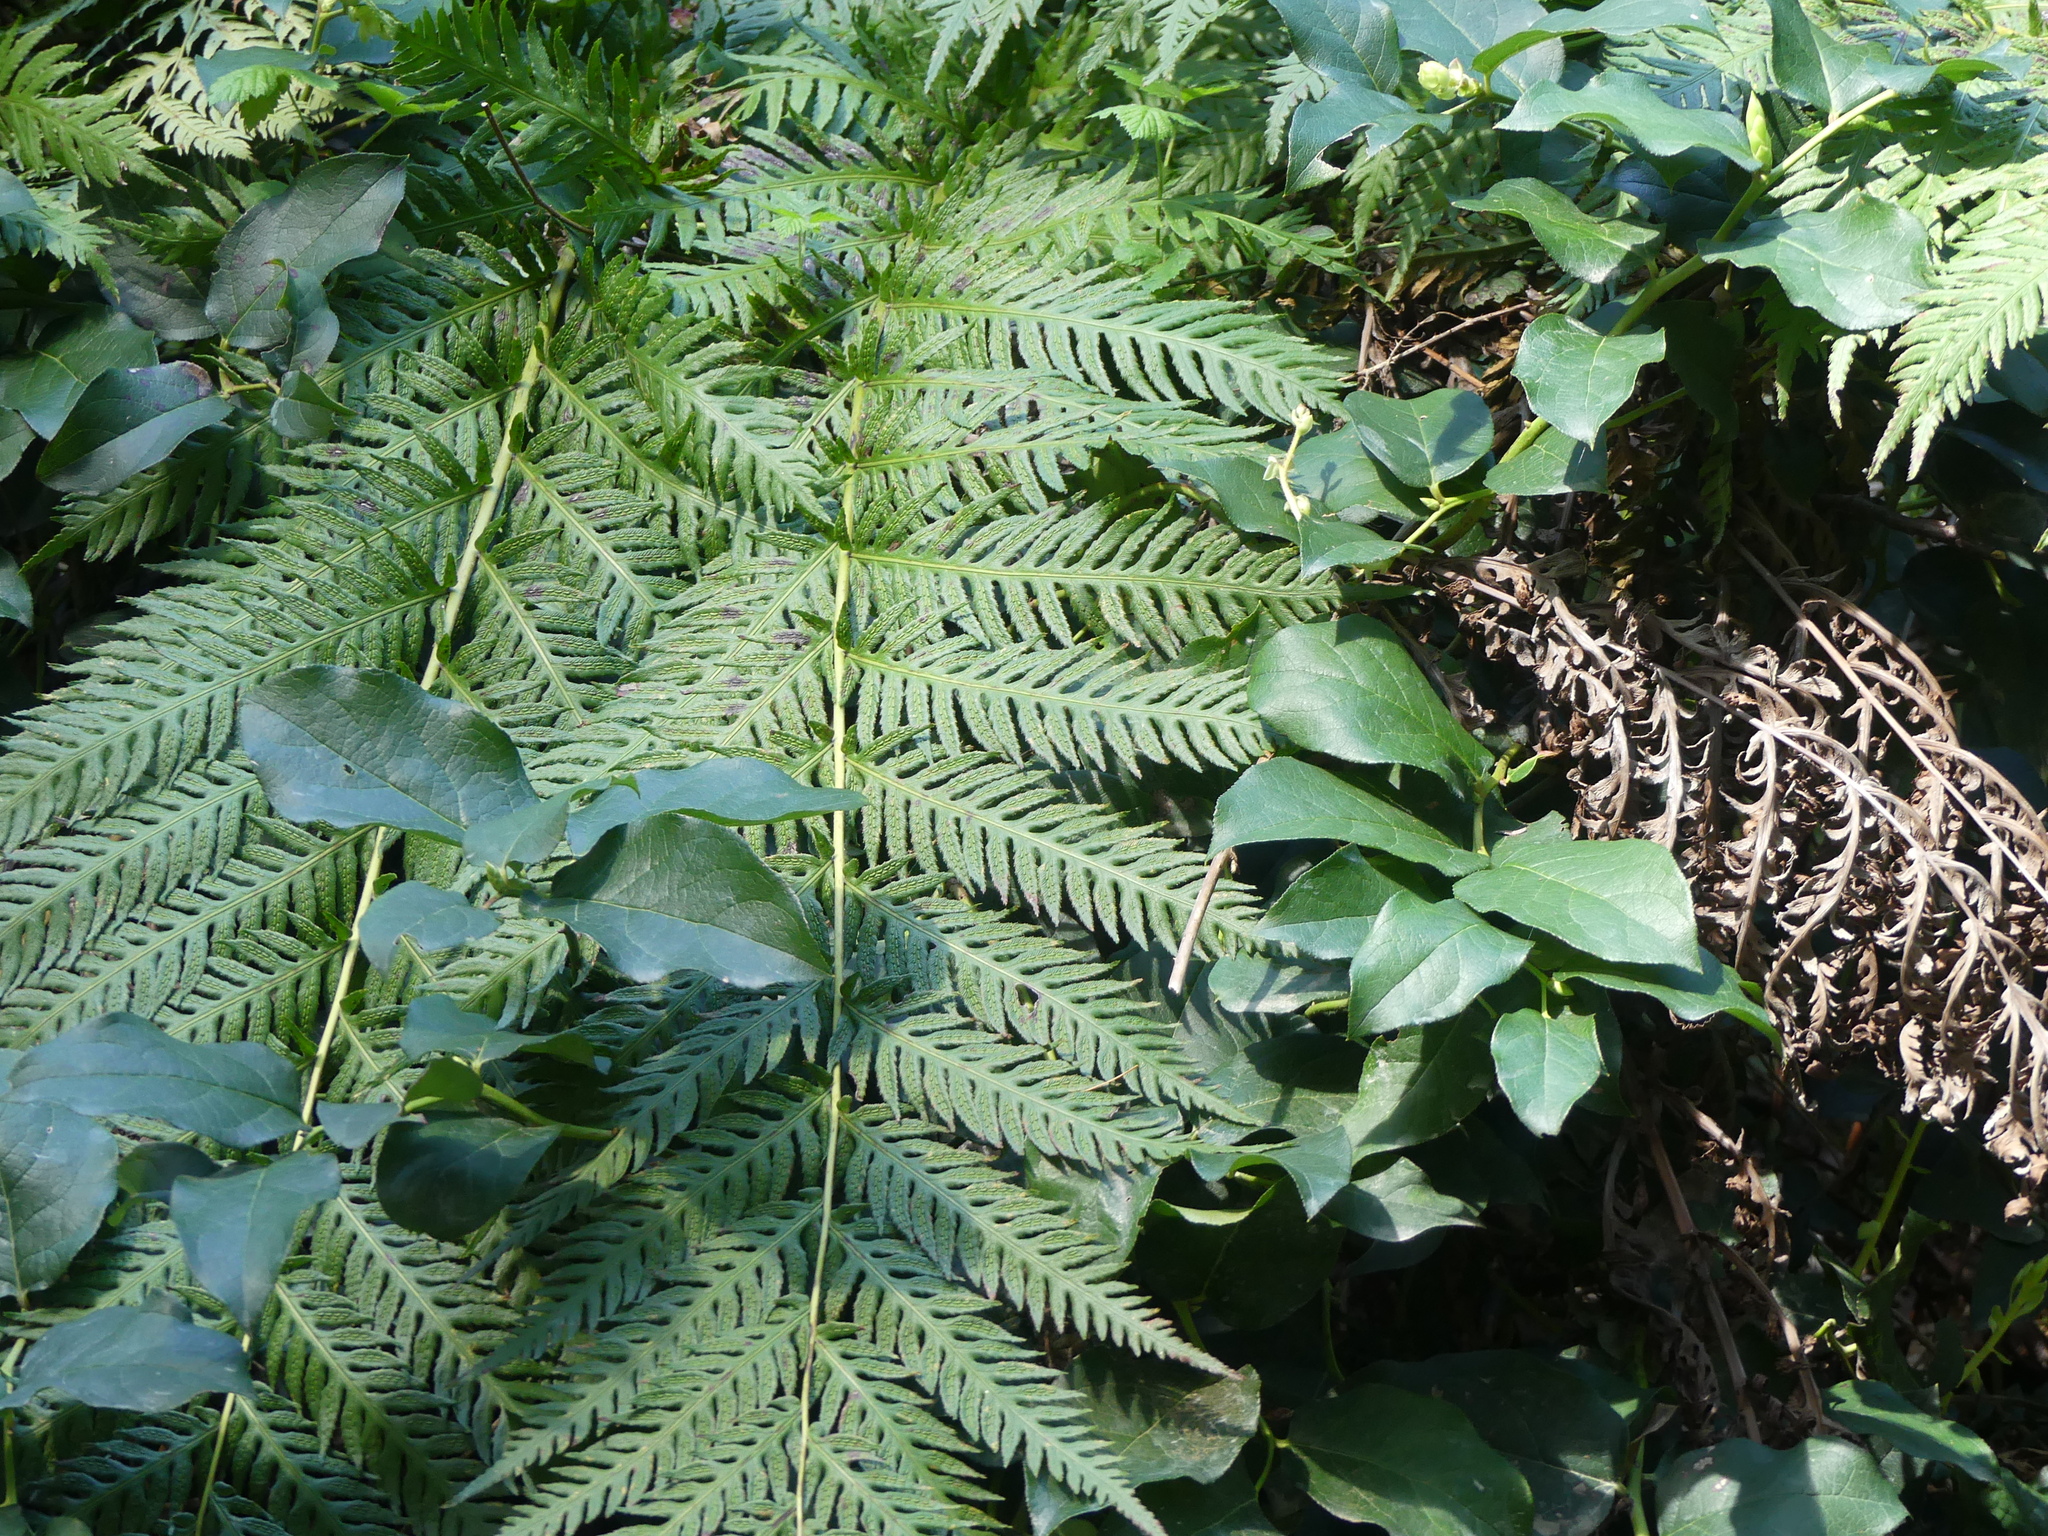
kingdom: Plantae
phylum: Tracheophyta
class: Polypodiopsida
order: Polypodiales
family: Blechnaceae
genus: Woodwardia
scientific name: Woodwardia fimbriata
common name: Giant chain fern
